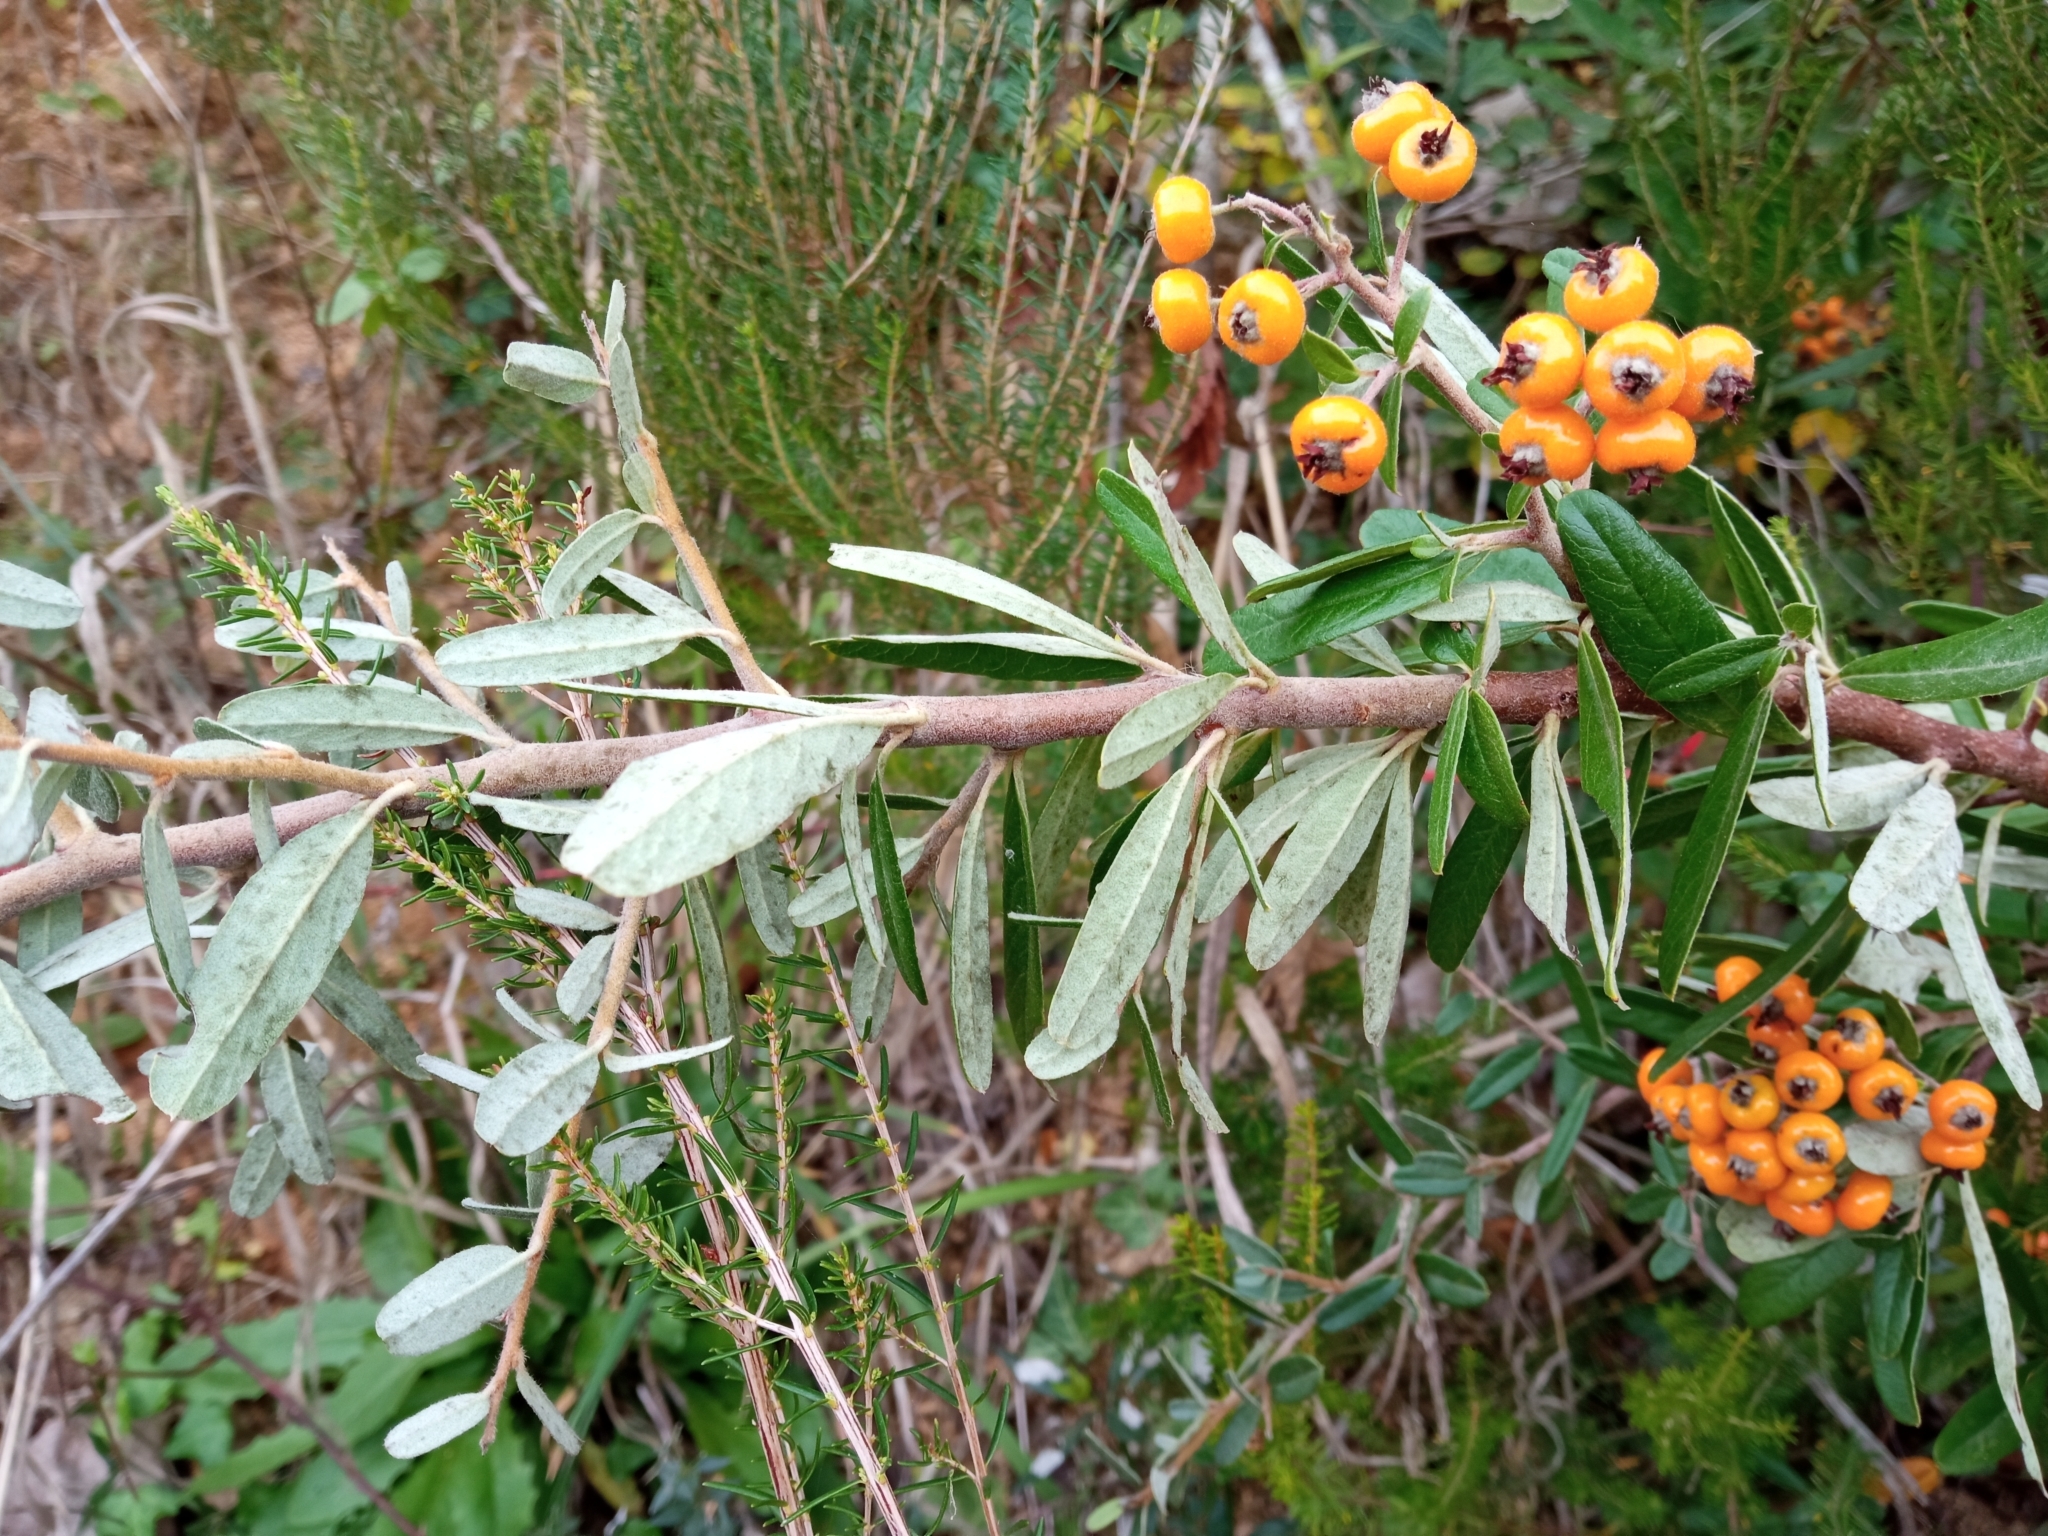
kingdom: Plantae
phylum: Tracheophyta
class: Magnoliopsida
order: Rosales
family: Rosaceae
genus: Pyracantha
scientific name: Pyracantha angustifolia
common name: Narrowleaf firethorn
